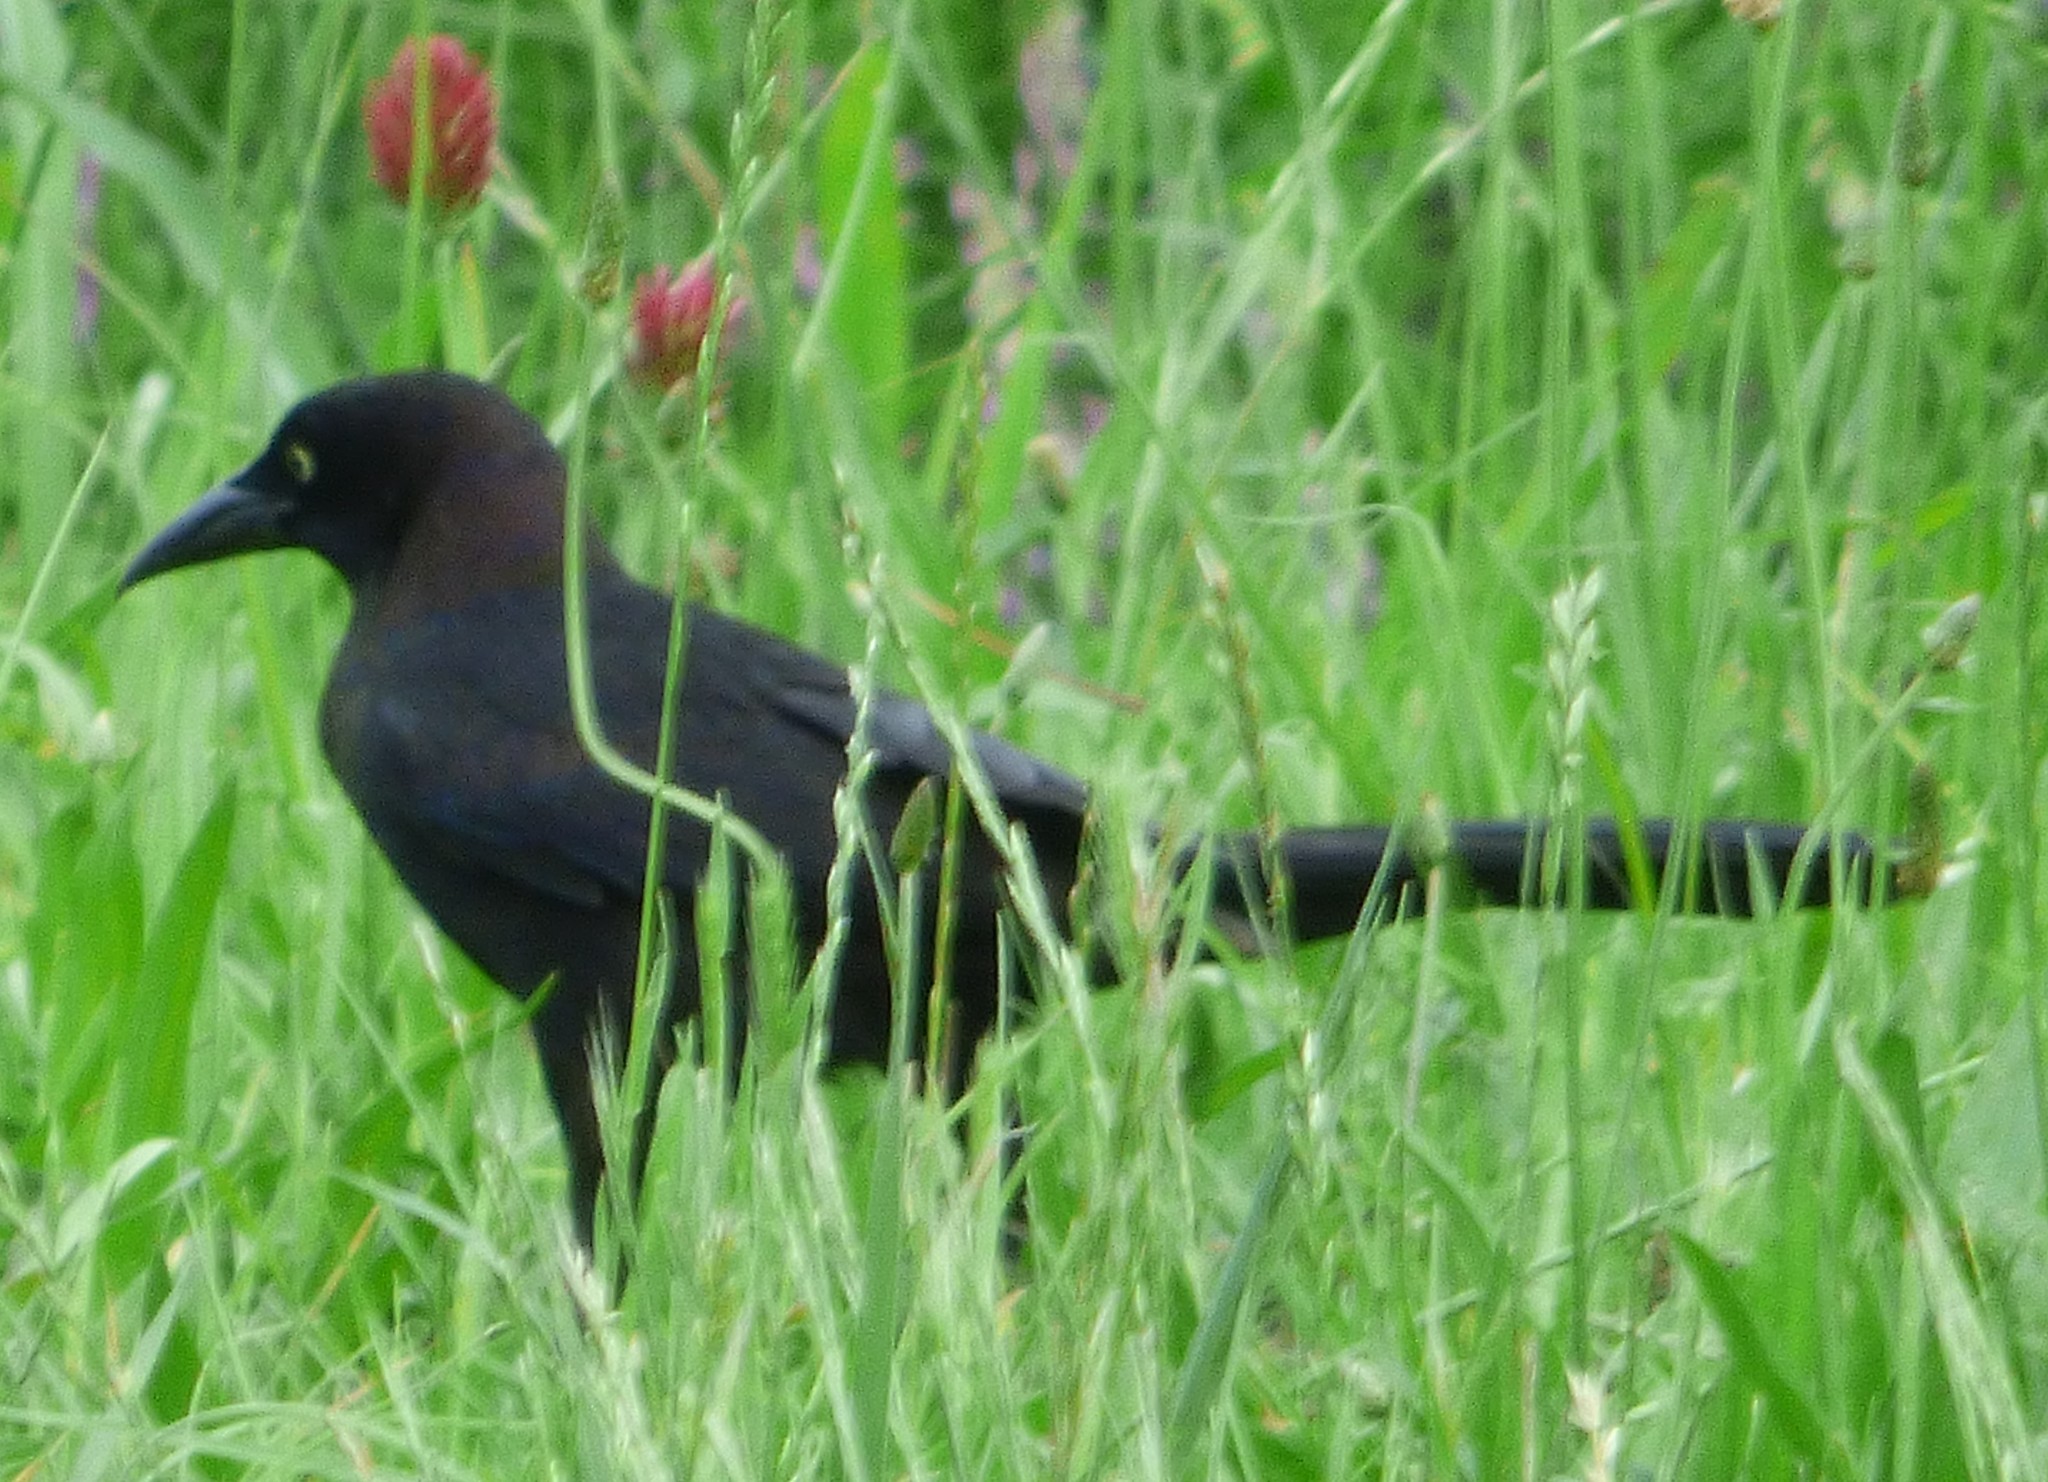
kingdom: Animalia
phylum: Chordata
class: Aves
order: Passeriformes
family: Icteridae
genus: Quiscalus
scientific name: Quiscalus quiscula
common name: Common grackle
